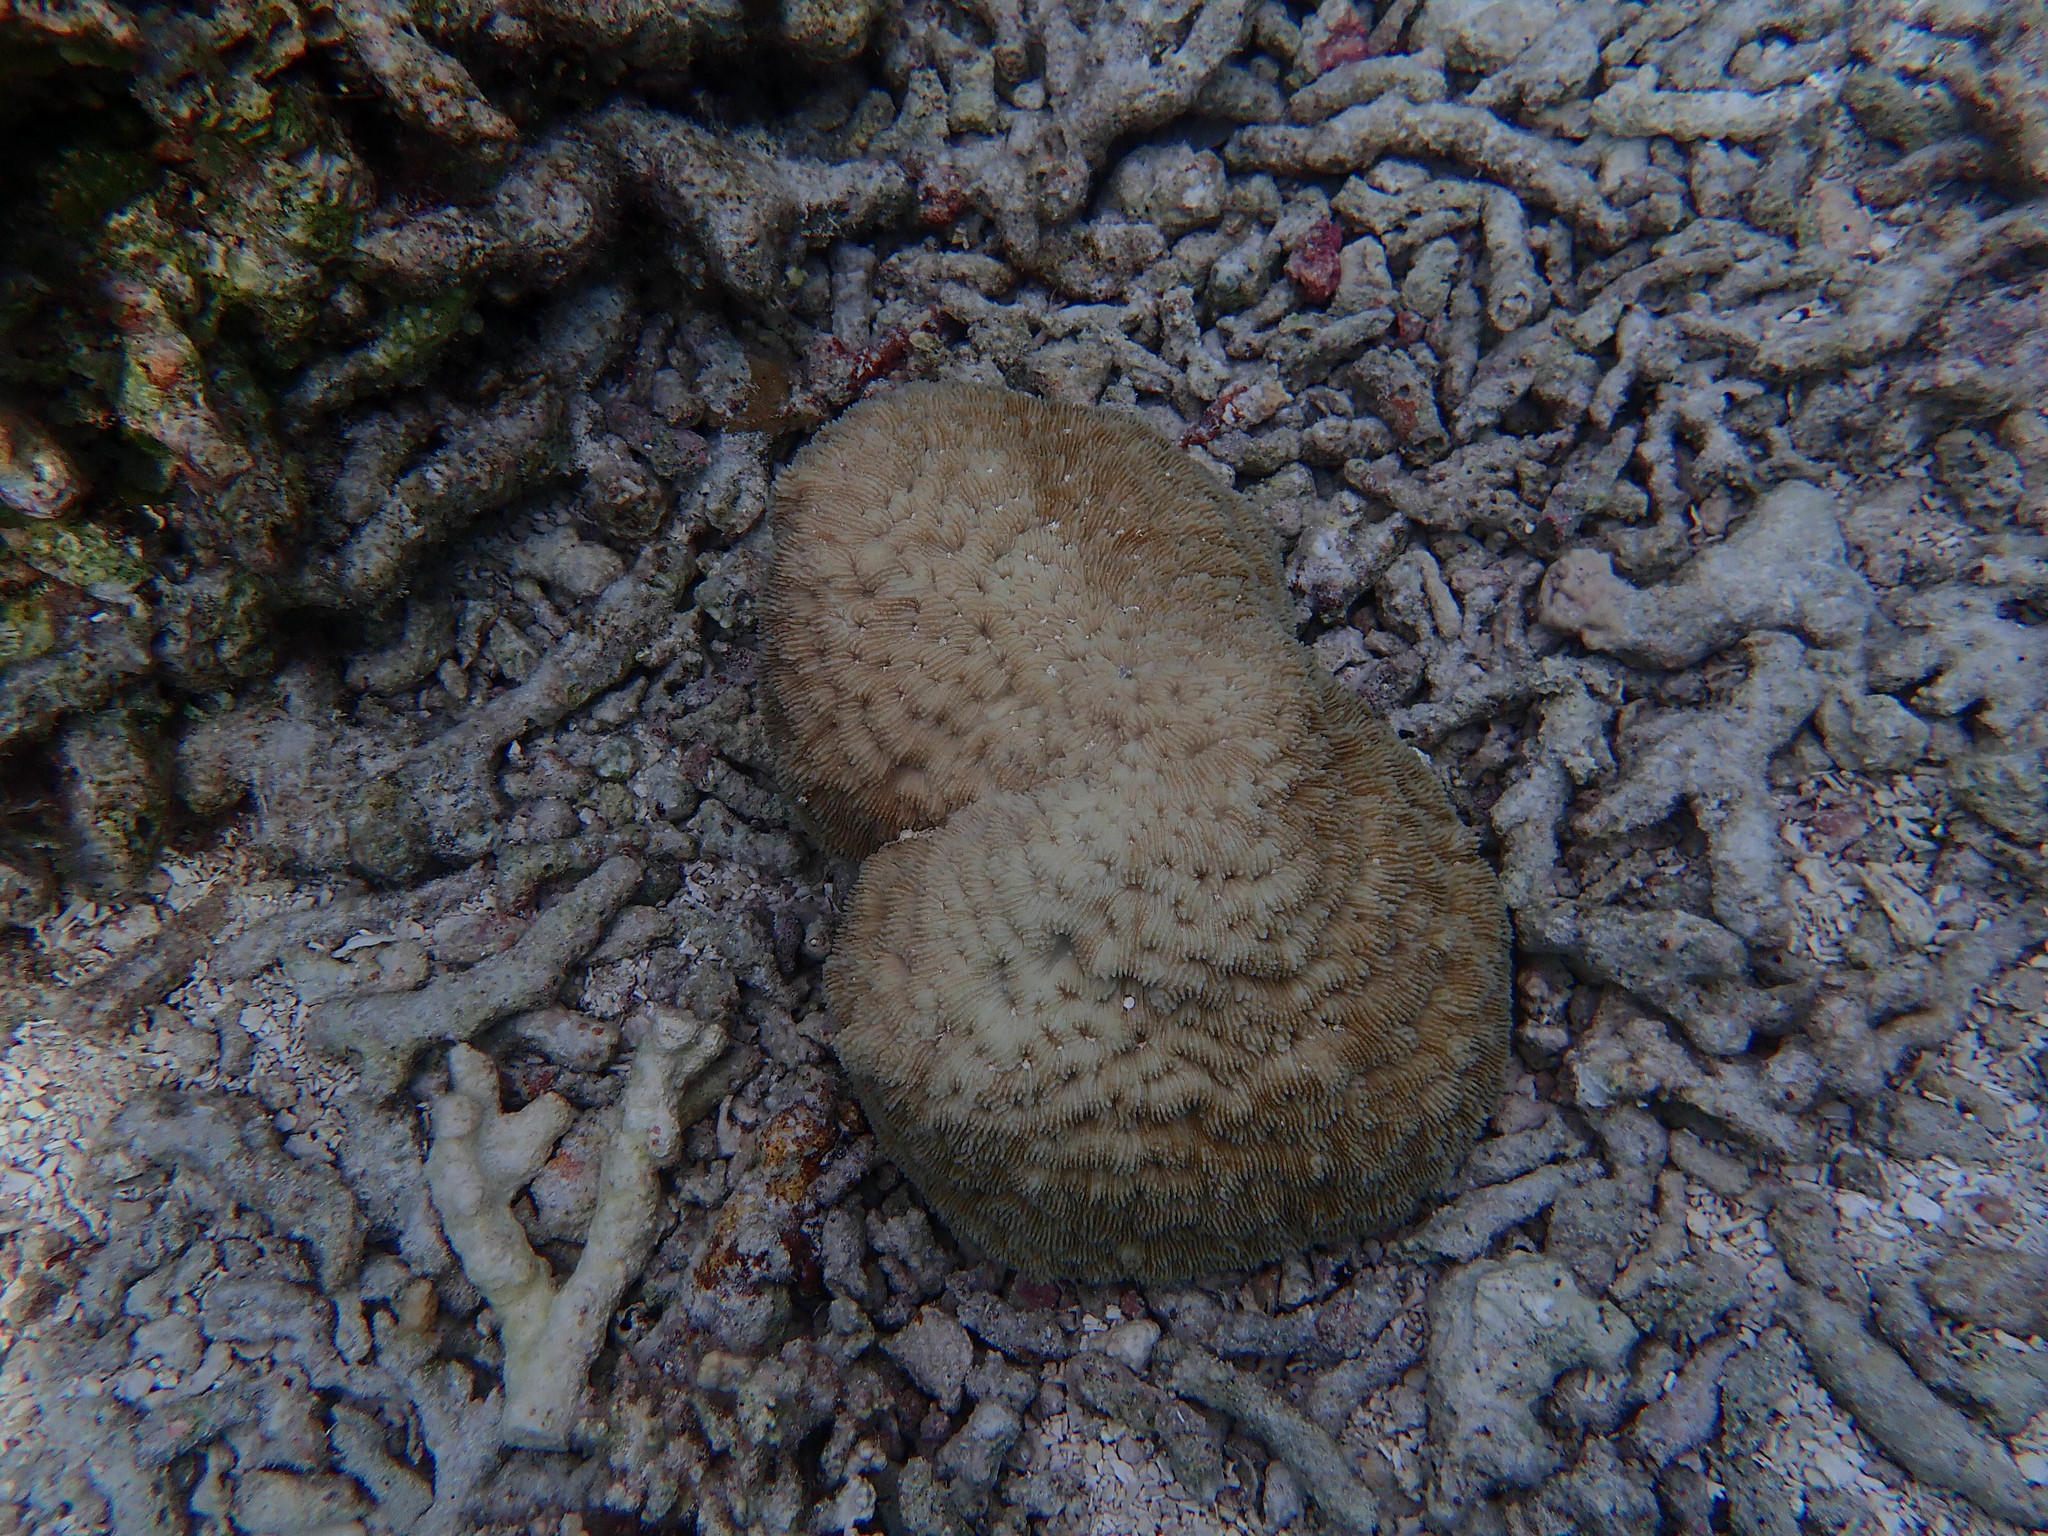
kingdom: Animalia
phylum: Cnidaria
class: Anthozoa
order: Scleractinia
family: Fungiidae
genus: Sandalolitha
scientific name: Sandalolitha robusta
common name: Irregular boomerang coral
